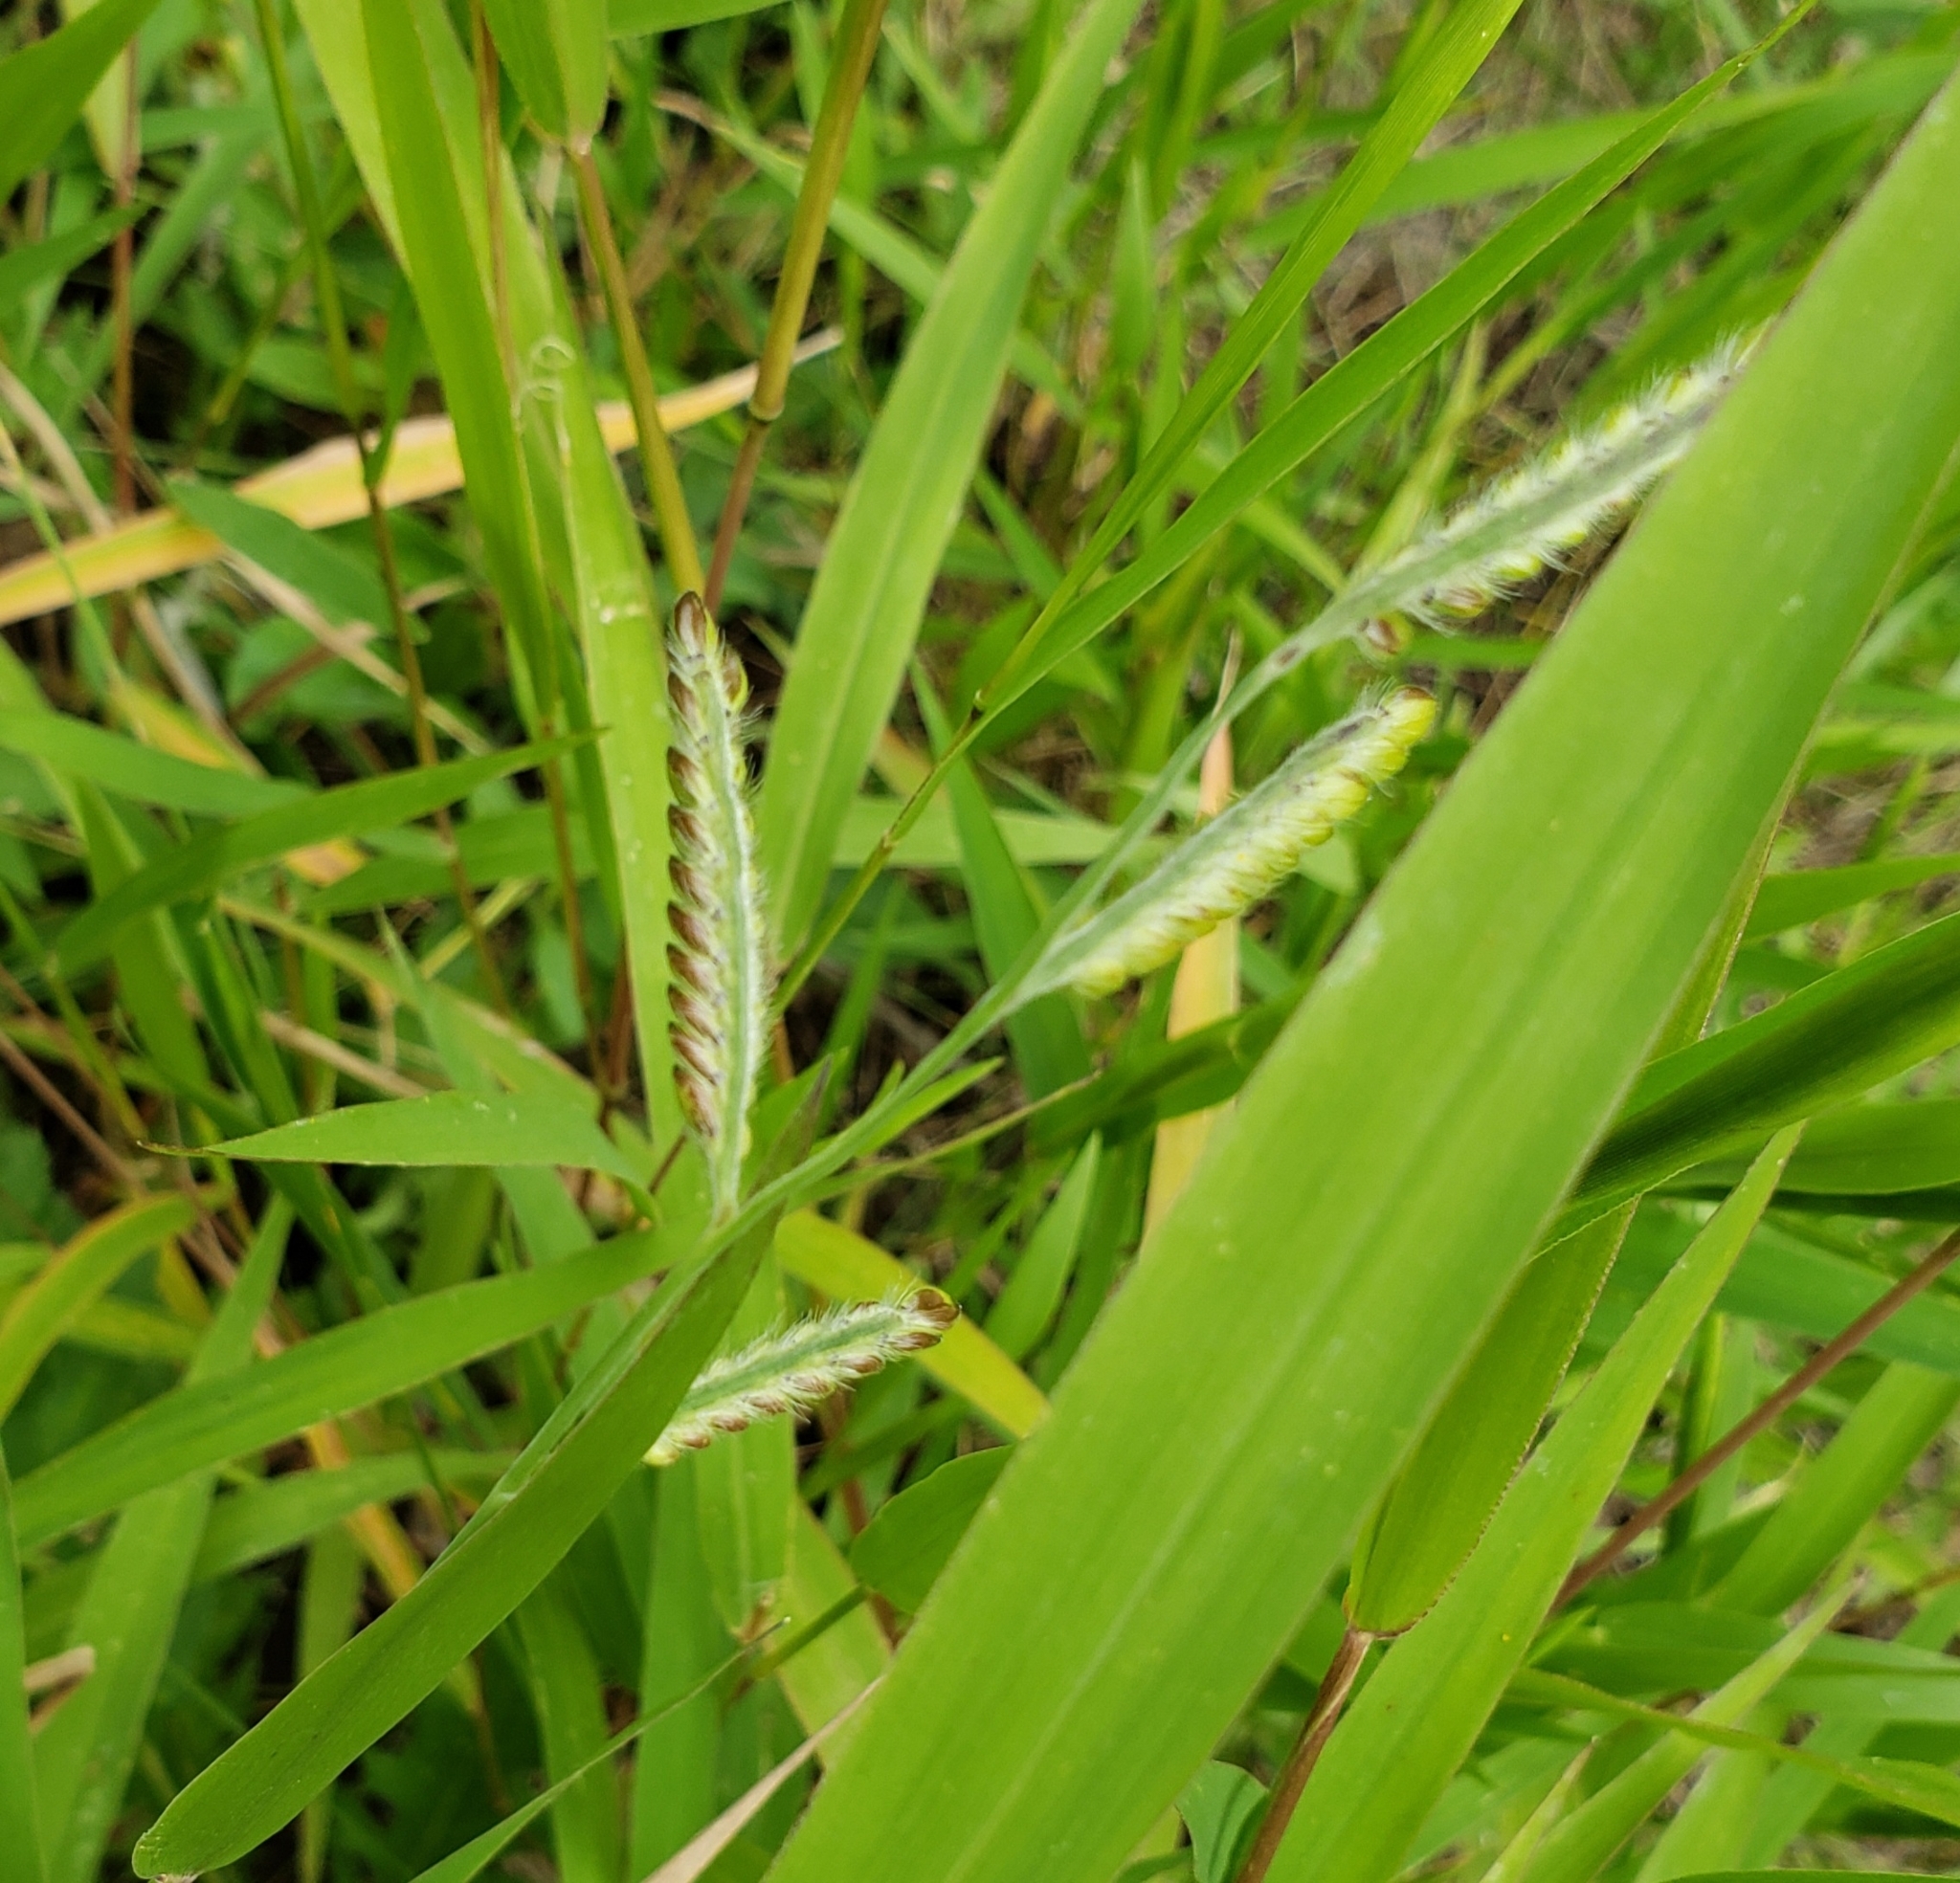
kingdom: Plantae
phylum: Tracheophyta
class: Liliopsida
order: Poales
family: Poaceae
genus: Eriochloa
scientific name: Eriochloa villosa
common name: Hairy cupgrass
